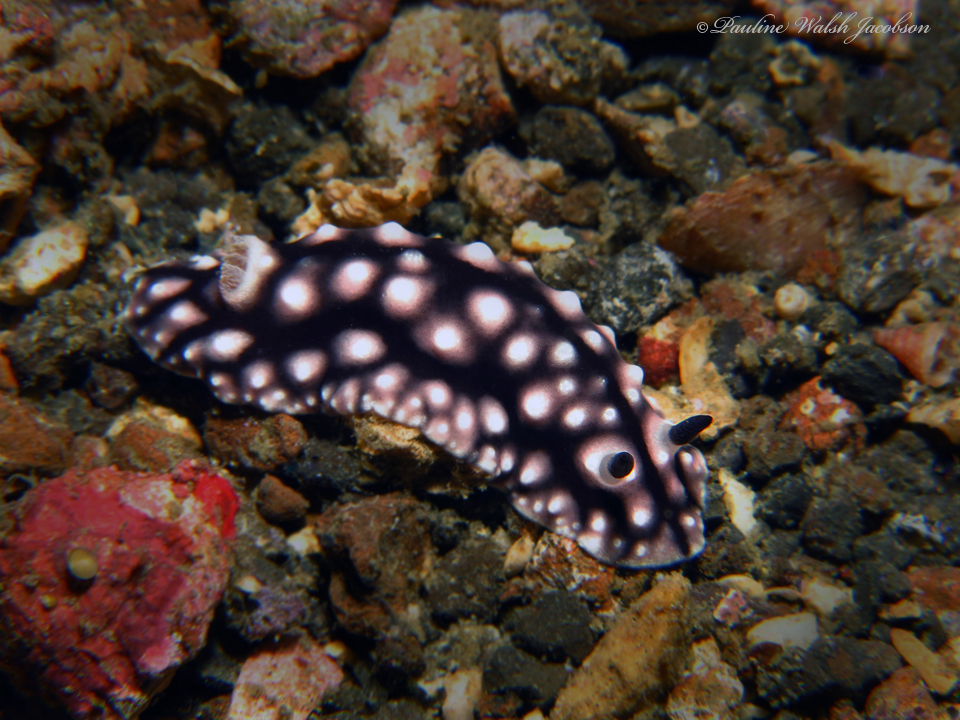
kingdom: Animalia
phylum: Mollusca
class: Gastropoda
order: Nudibranchia
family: Discodorididae
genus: Paradoris
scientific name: Paradoris liturata
